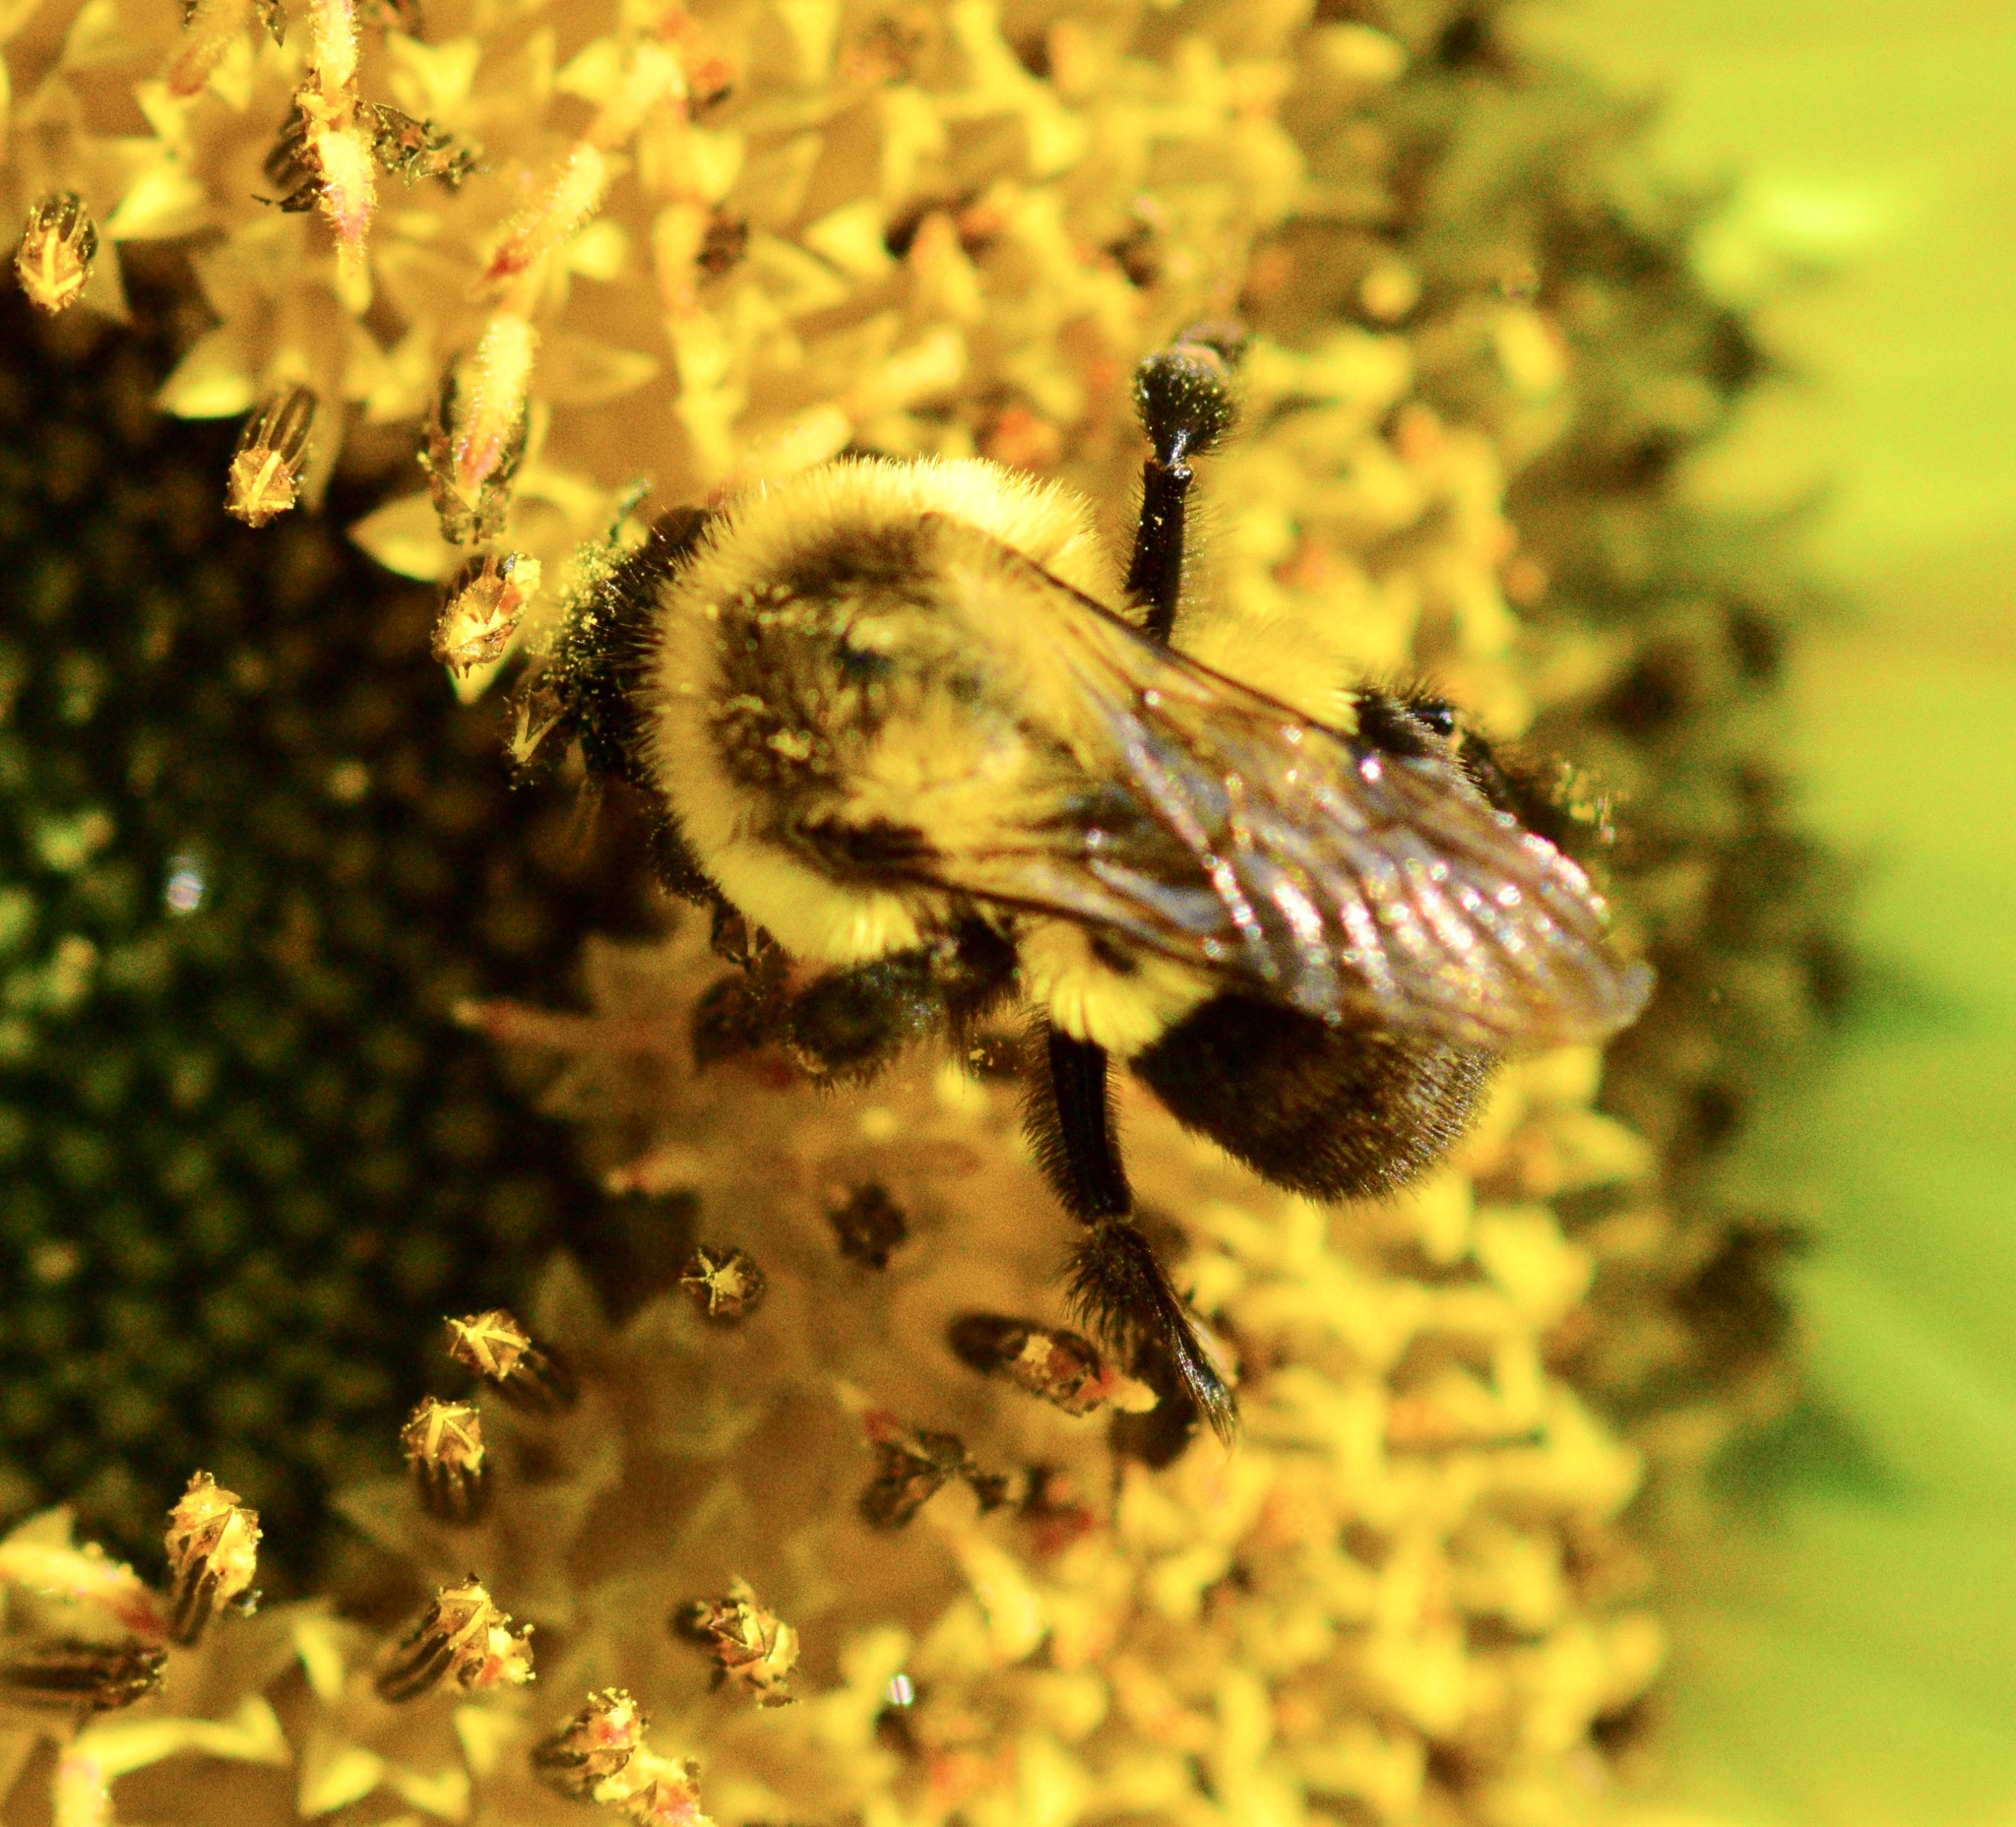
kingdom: Animalia
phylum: Arthropoda
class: Insecta
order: Hymenoptera
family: Apidae
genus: Bombus
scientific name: Bombus impatiens
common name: Common eastern bumble bee
